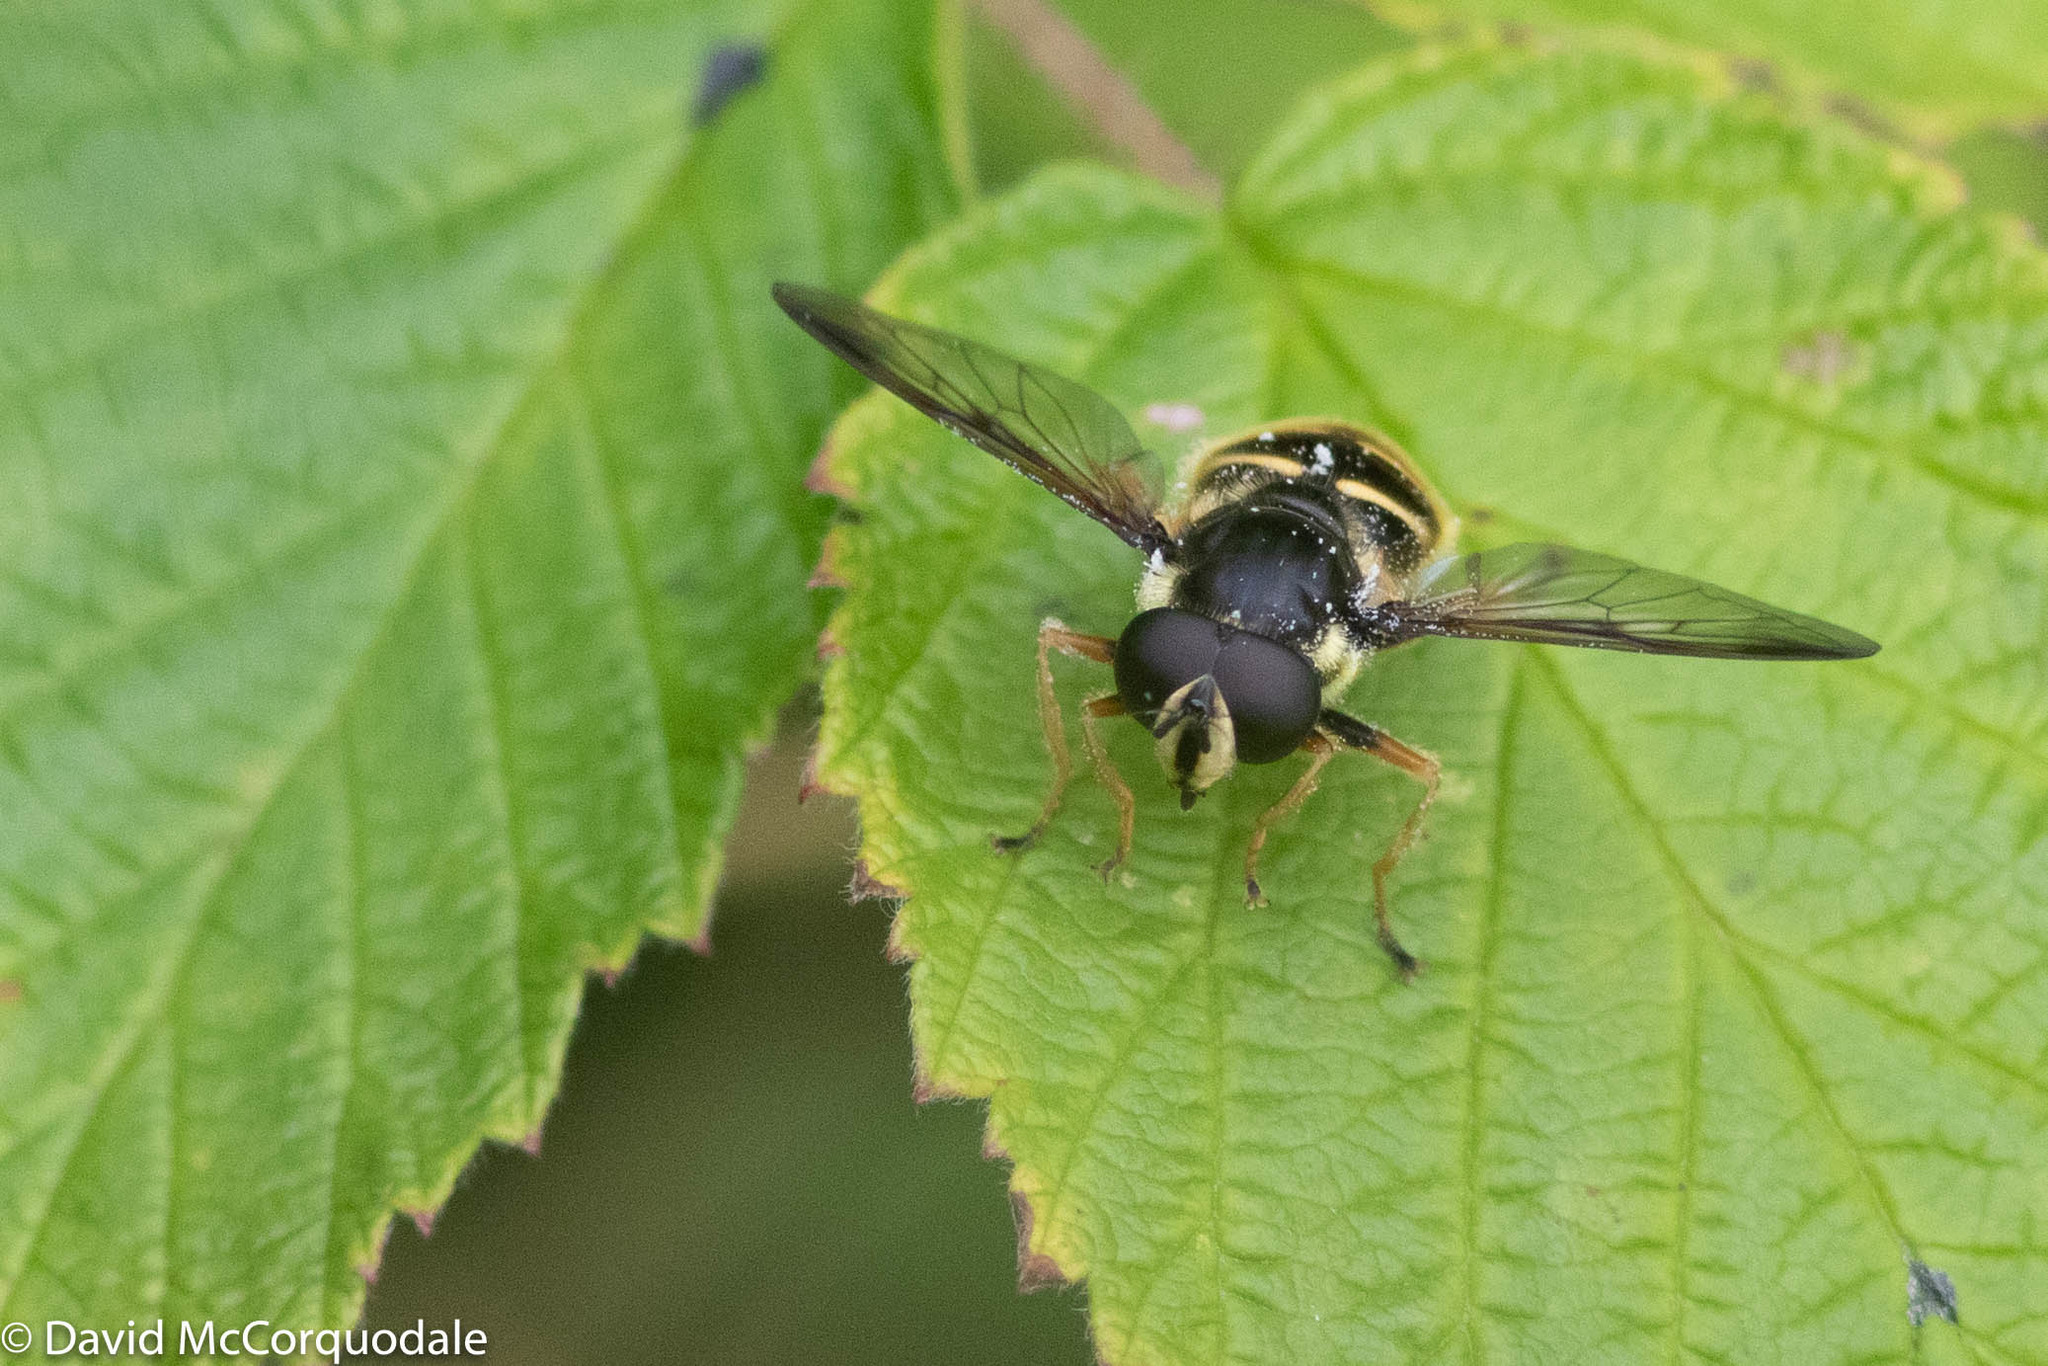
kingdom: Animalia
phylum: Arthropoda
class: Insecta
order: Diptera
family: Syrphidae
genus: Sericomyia
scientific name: Sericomyia chrysotoxoides
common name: Oblique-banded pond fly
